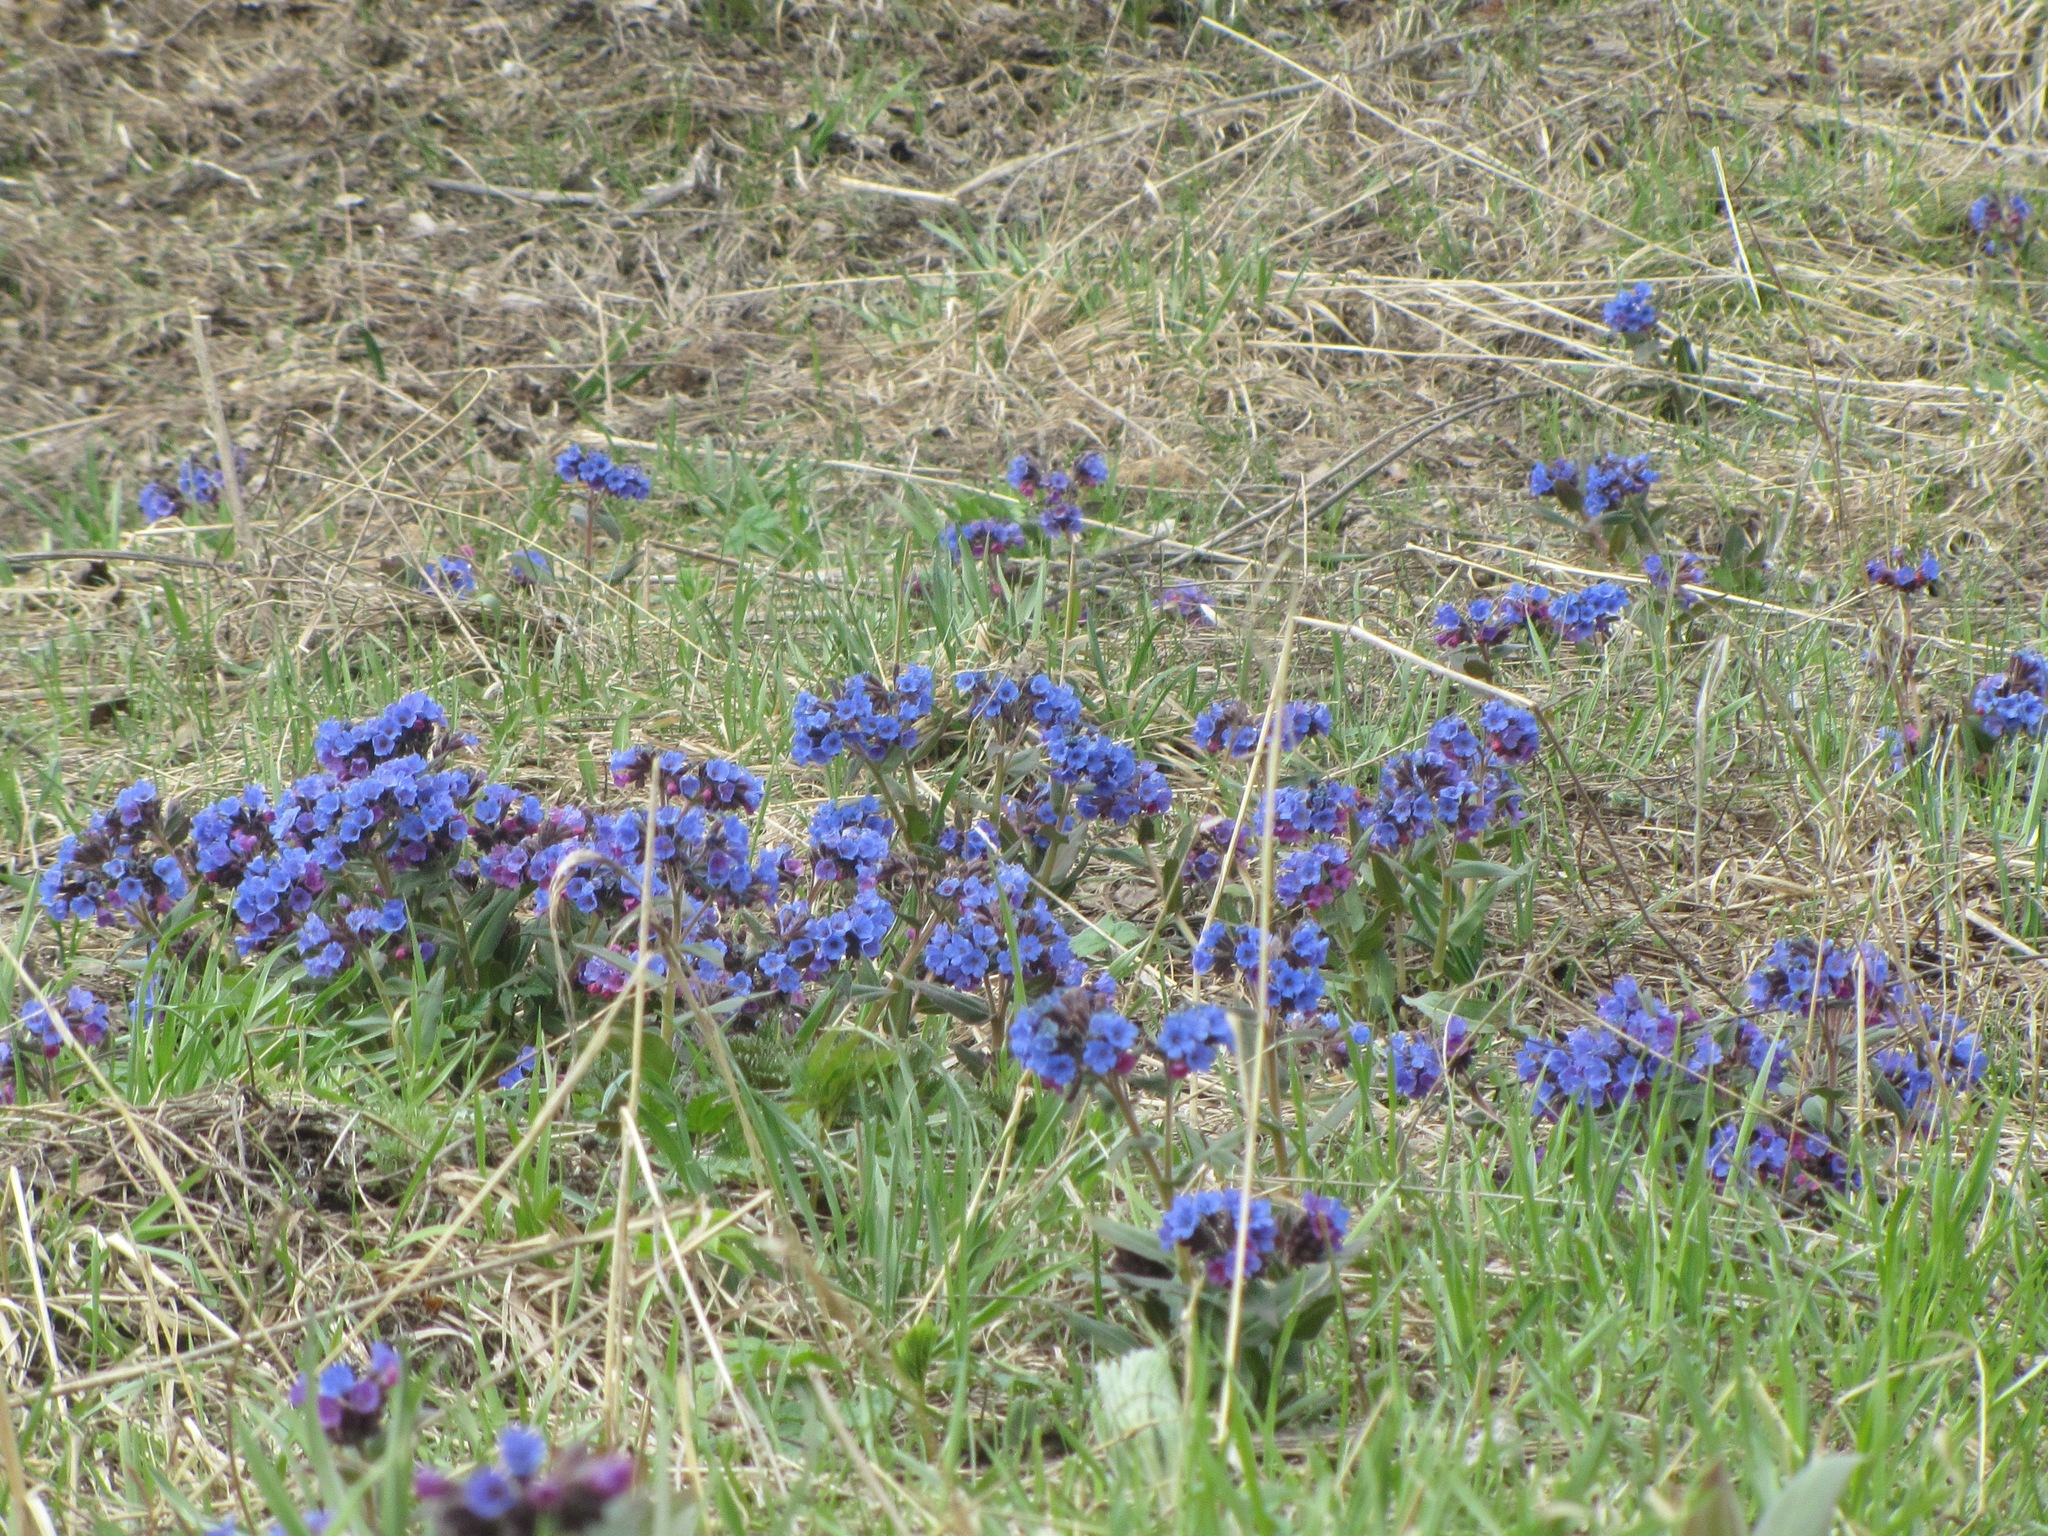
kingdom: Plantae
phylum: Tracheophyta
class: Magnoliopsida
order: Boraginales
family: Boraginaceae
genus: Pulmonaria
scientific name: Pulmonaria mollis
